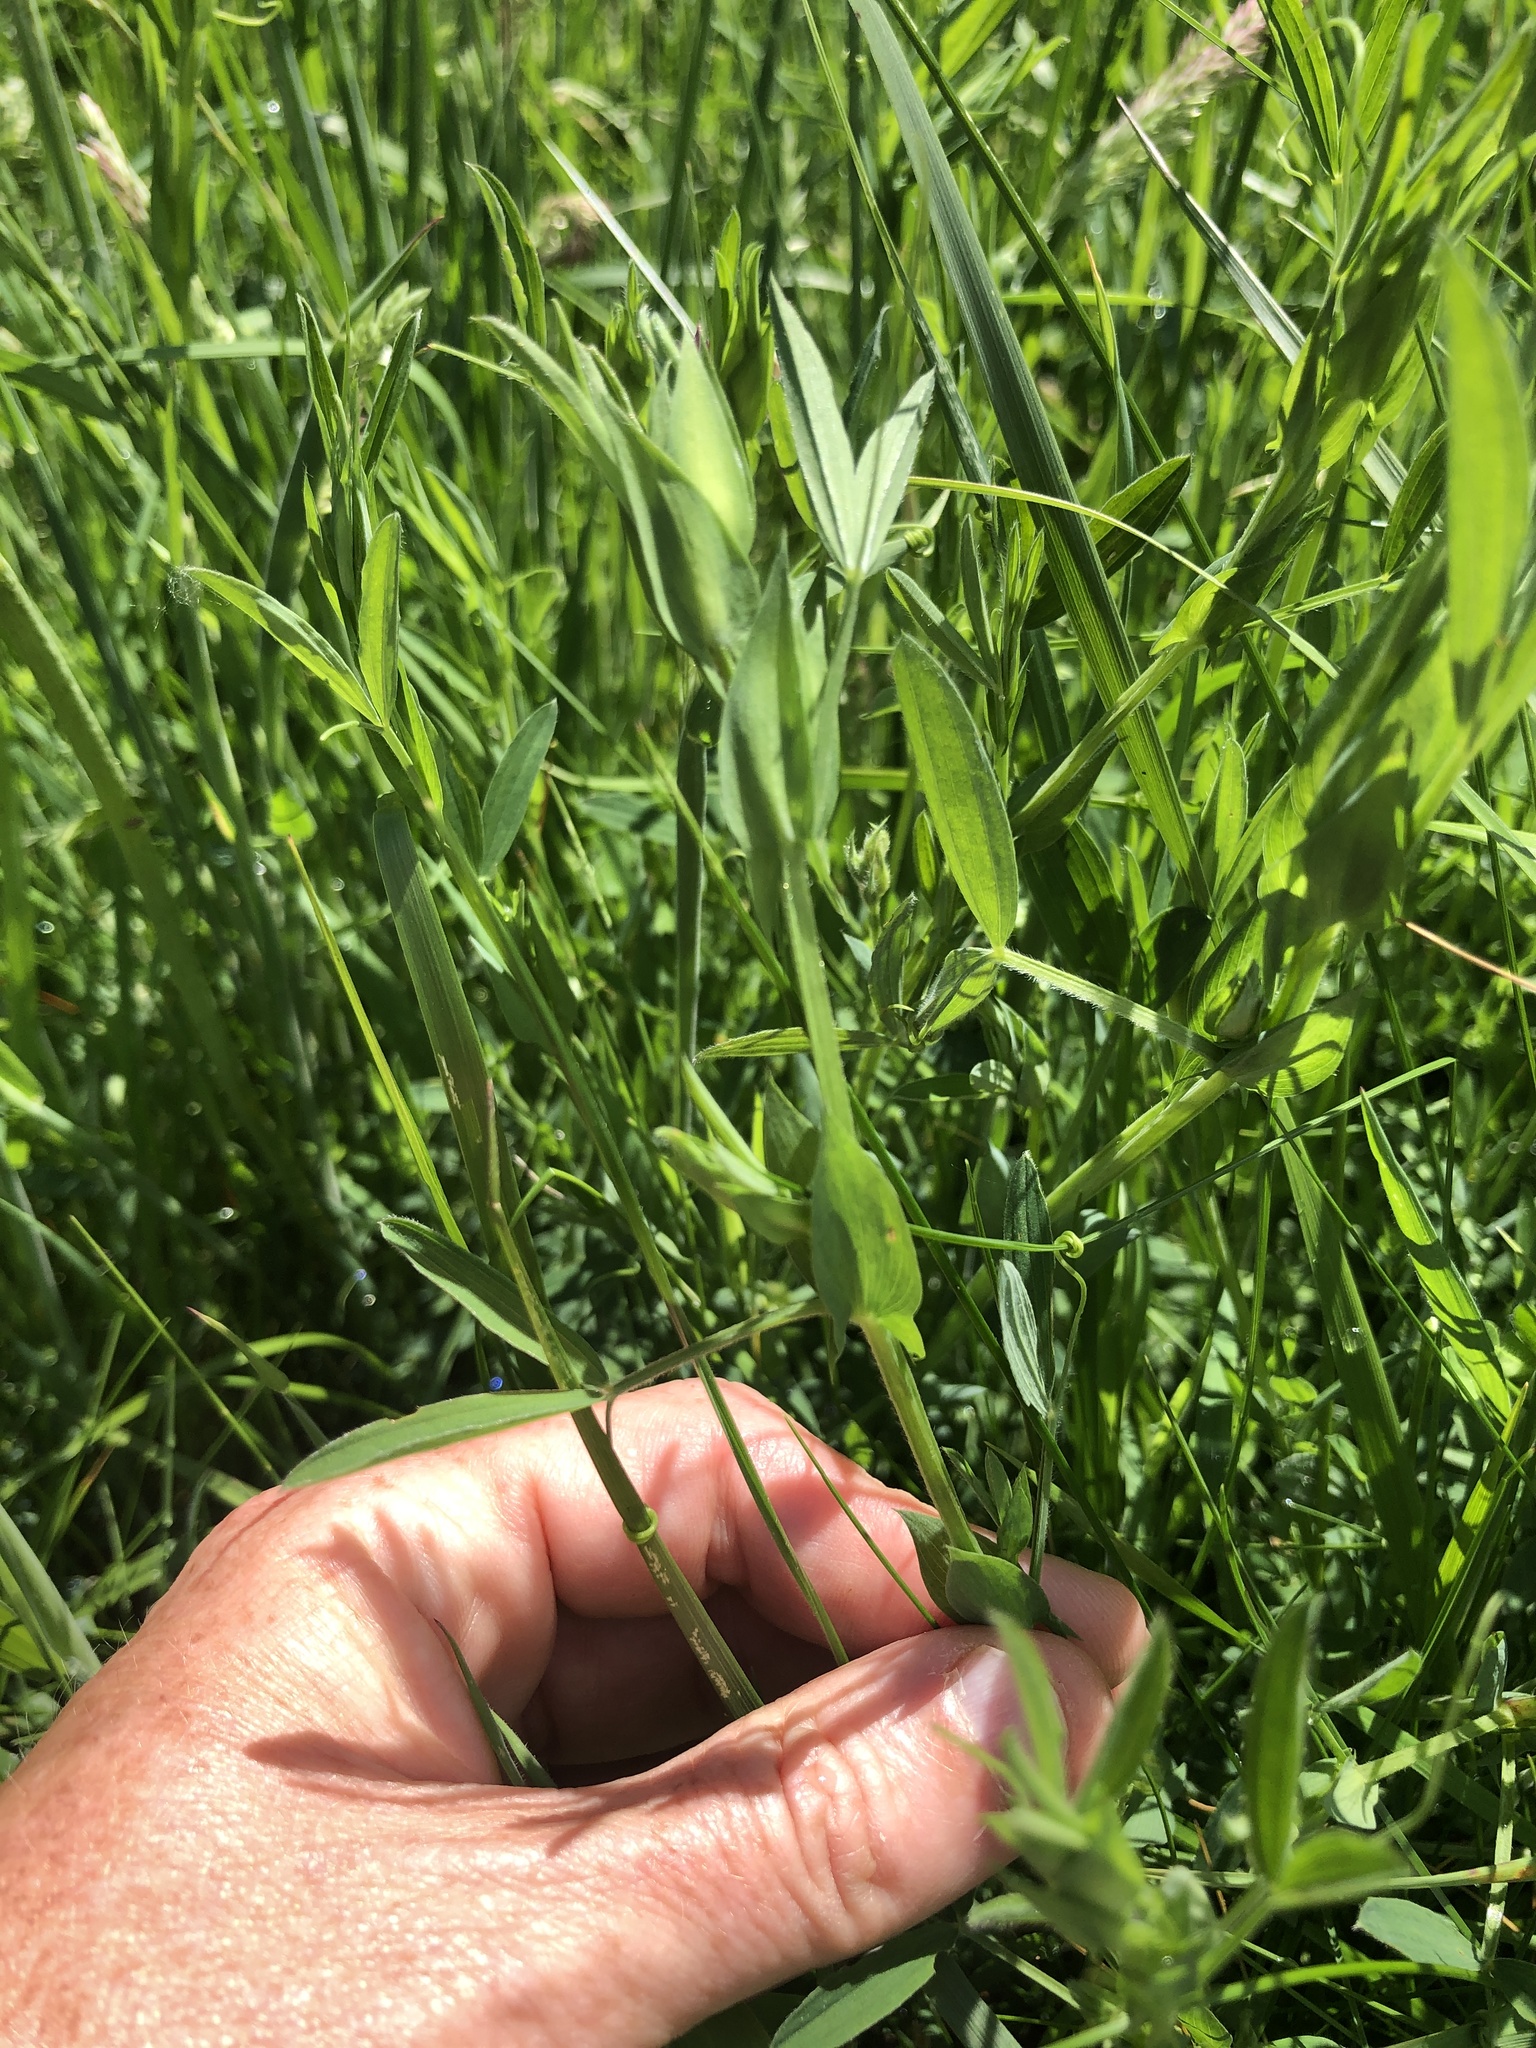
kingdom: Plantae
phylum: Tracheophyta
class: Magnoliopsida
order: Fabales
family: Fabaceae
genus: Lathyrus
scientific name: Lathyrus pratensis
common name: Meadow vetchling
